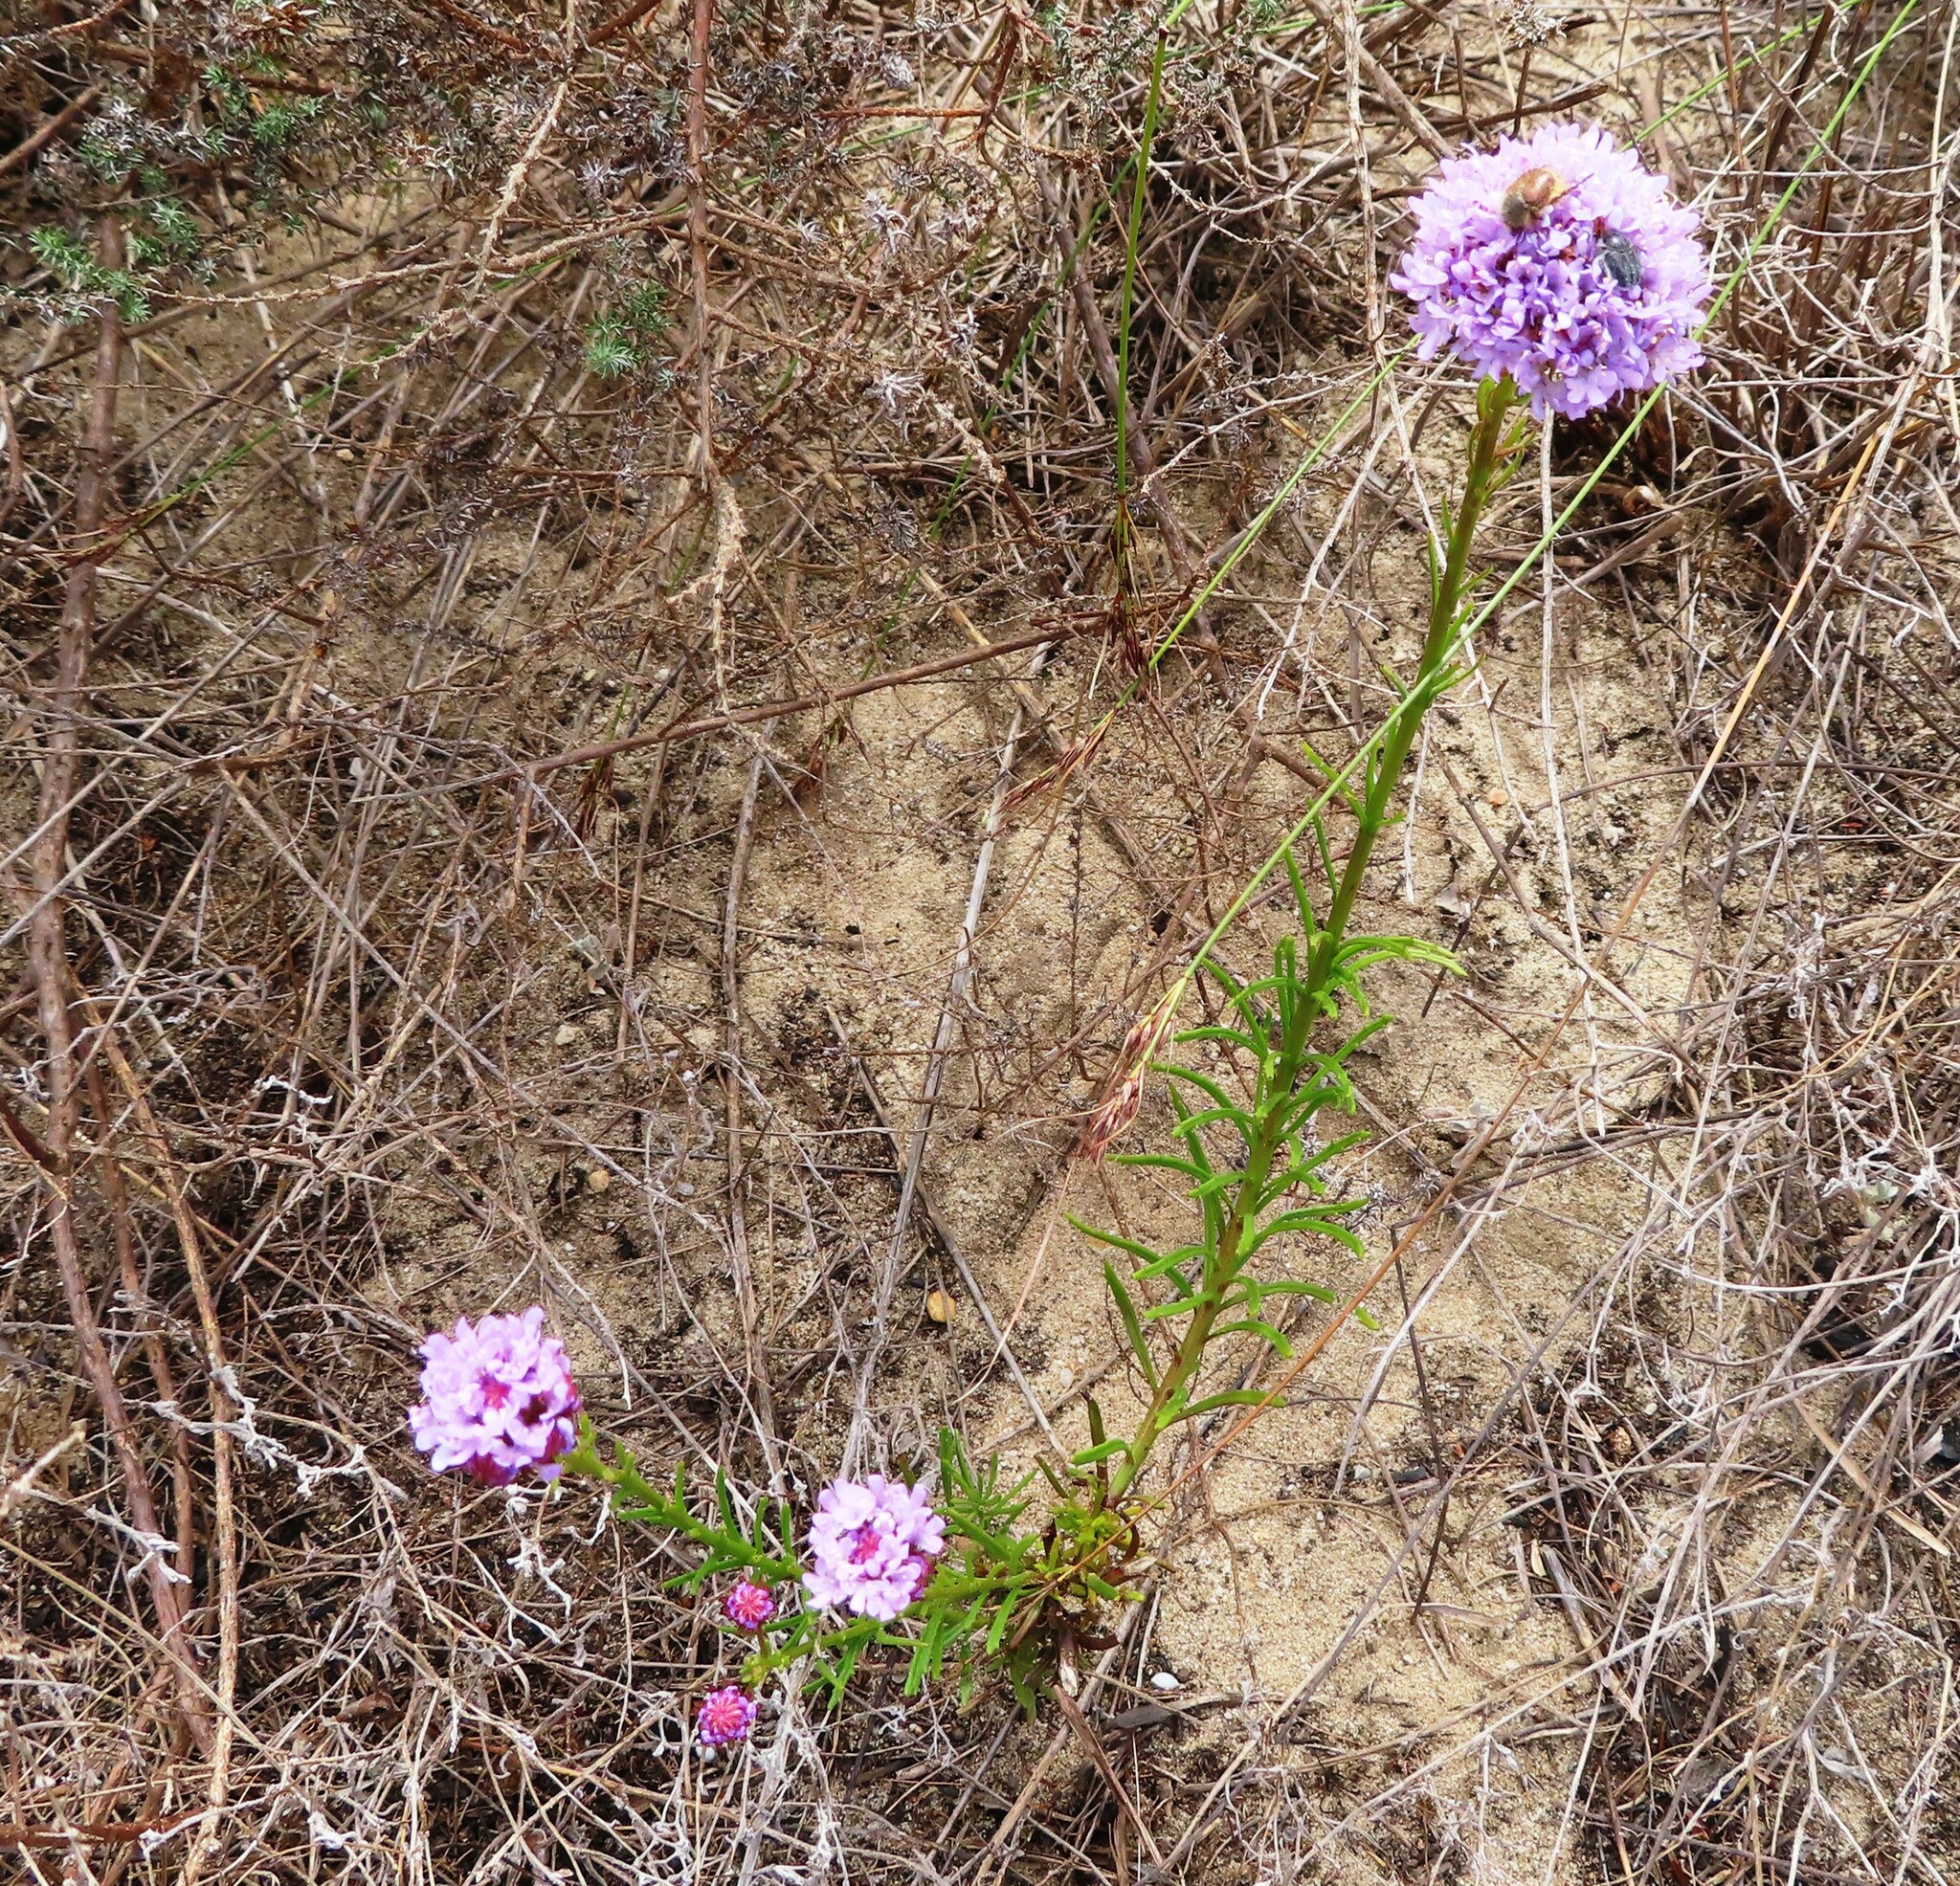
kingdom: Plantae
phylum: Tracheophyta
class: Magnoliopsida
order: Lamiales
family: Scrophulariaceae
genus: Pseudoselago
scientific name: Pseudoselago spuria
